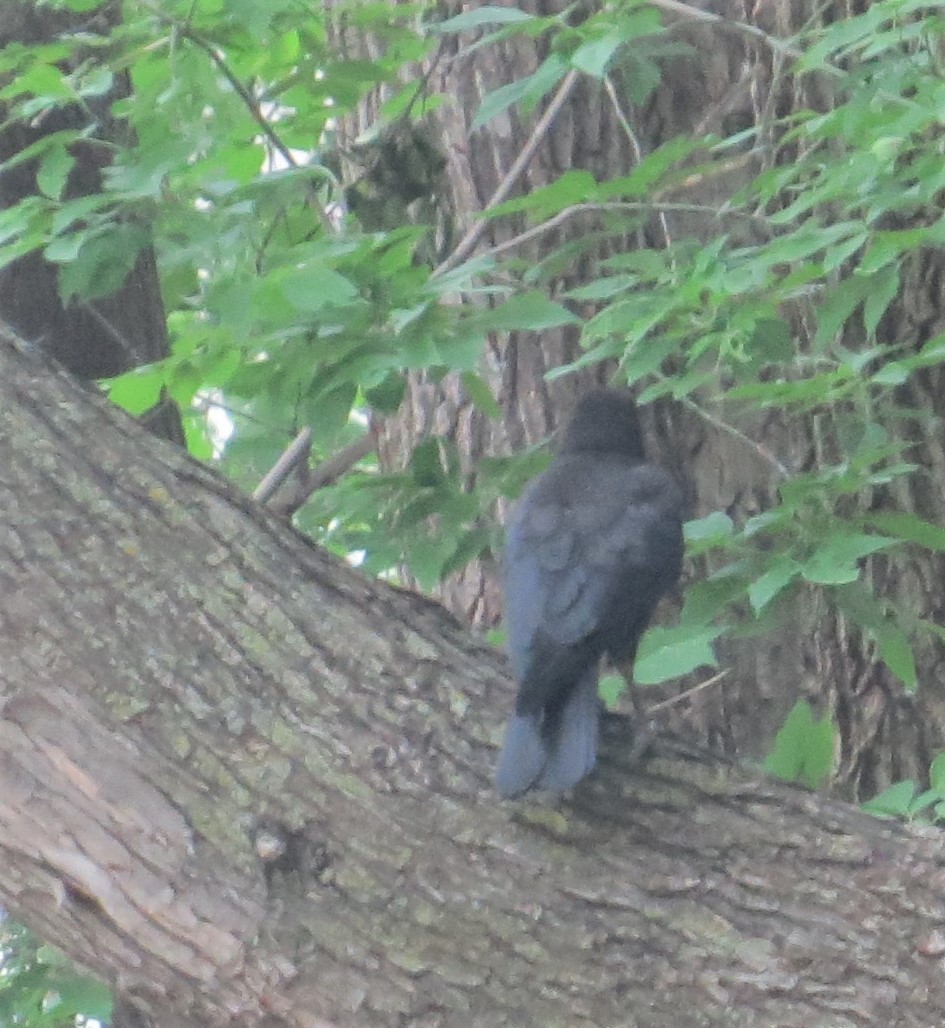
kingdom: Animalia
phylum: Chordata
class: Aves
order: Passeriformes
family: Corvidae
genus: Corvus
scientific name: Corvus brachyrhynchos
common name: American crow
